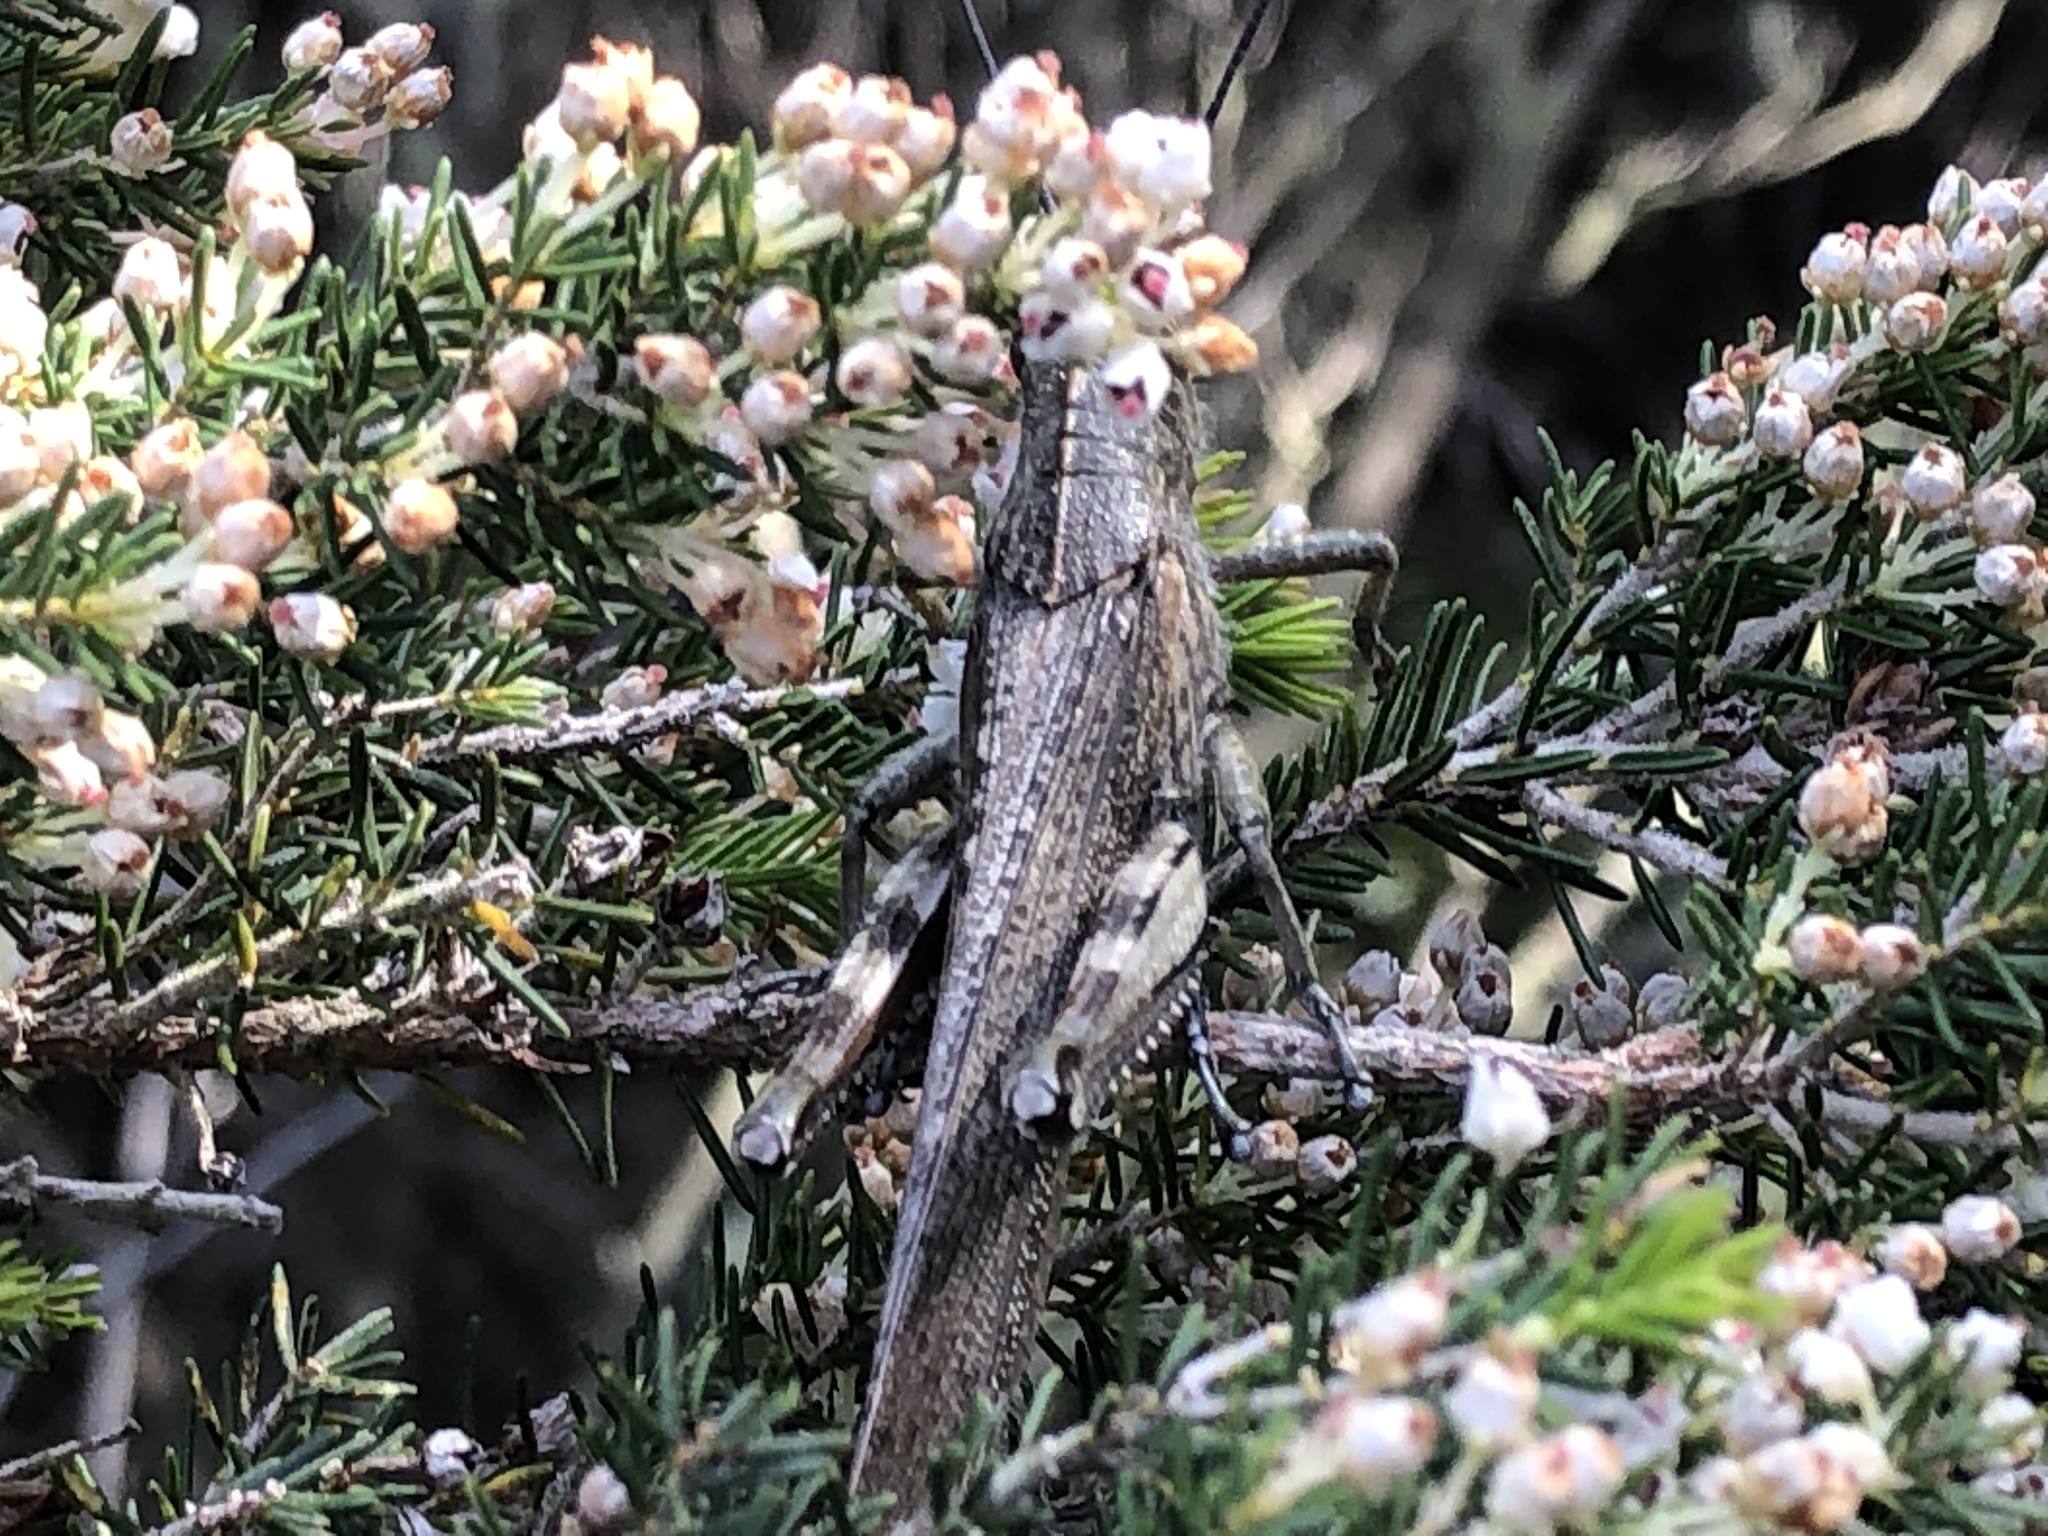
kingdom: Animalia
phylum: Arthropoda
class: Insecta
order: Orthoptera
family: Acrididae
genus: Anacridium
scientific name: Anacridium aegyptium
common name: Egyptian grasshopper
